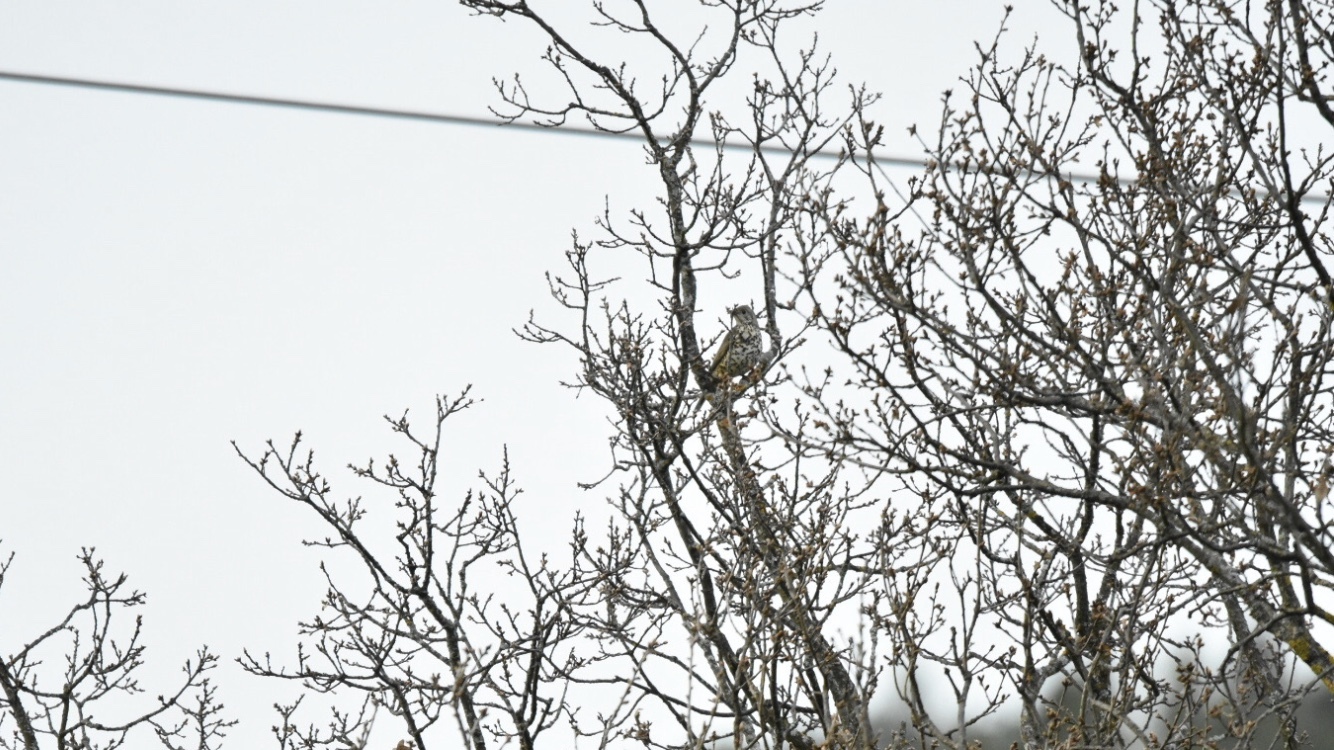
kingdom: Animalia
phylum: Chordata
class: Aves
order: Passeriformes
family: Turdidae
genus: Turdus
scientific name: Turdus viscivorus
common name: Mistle thrush
